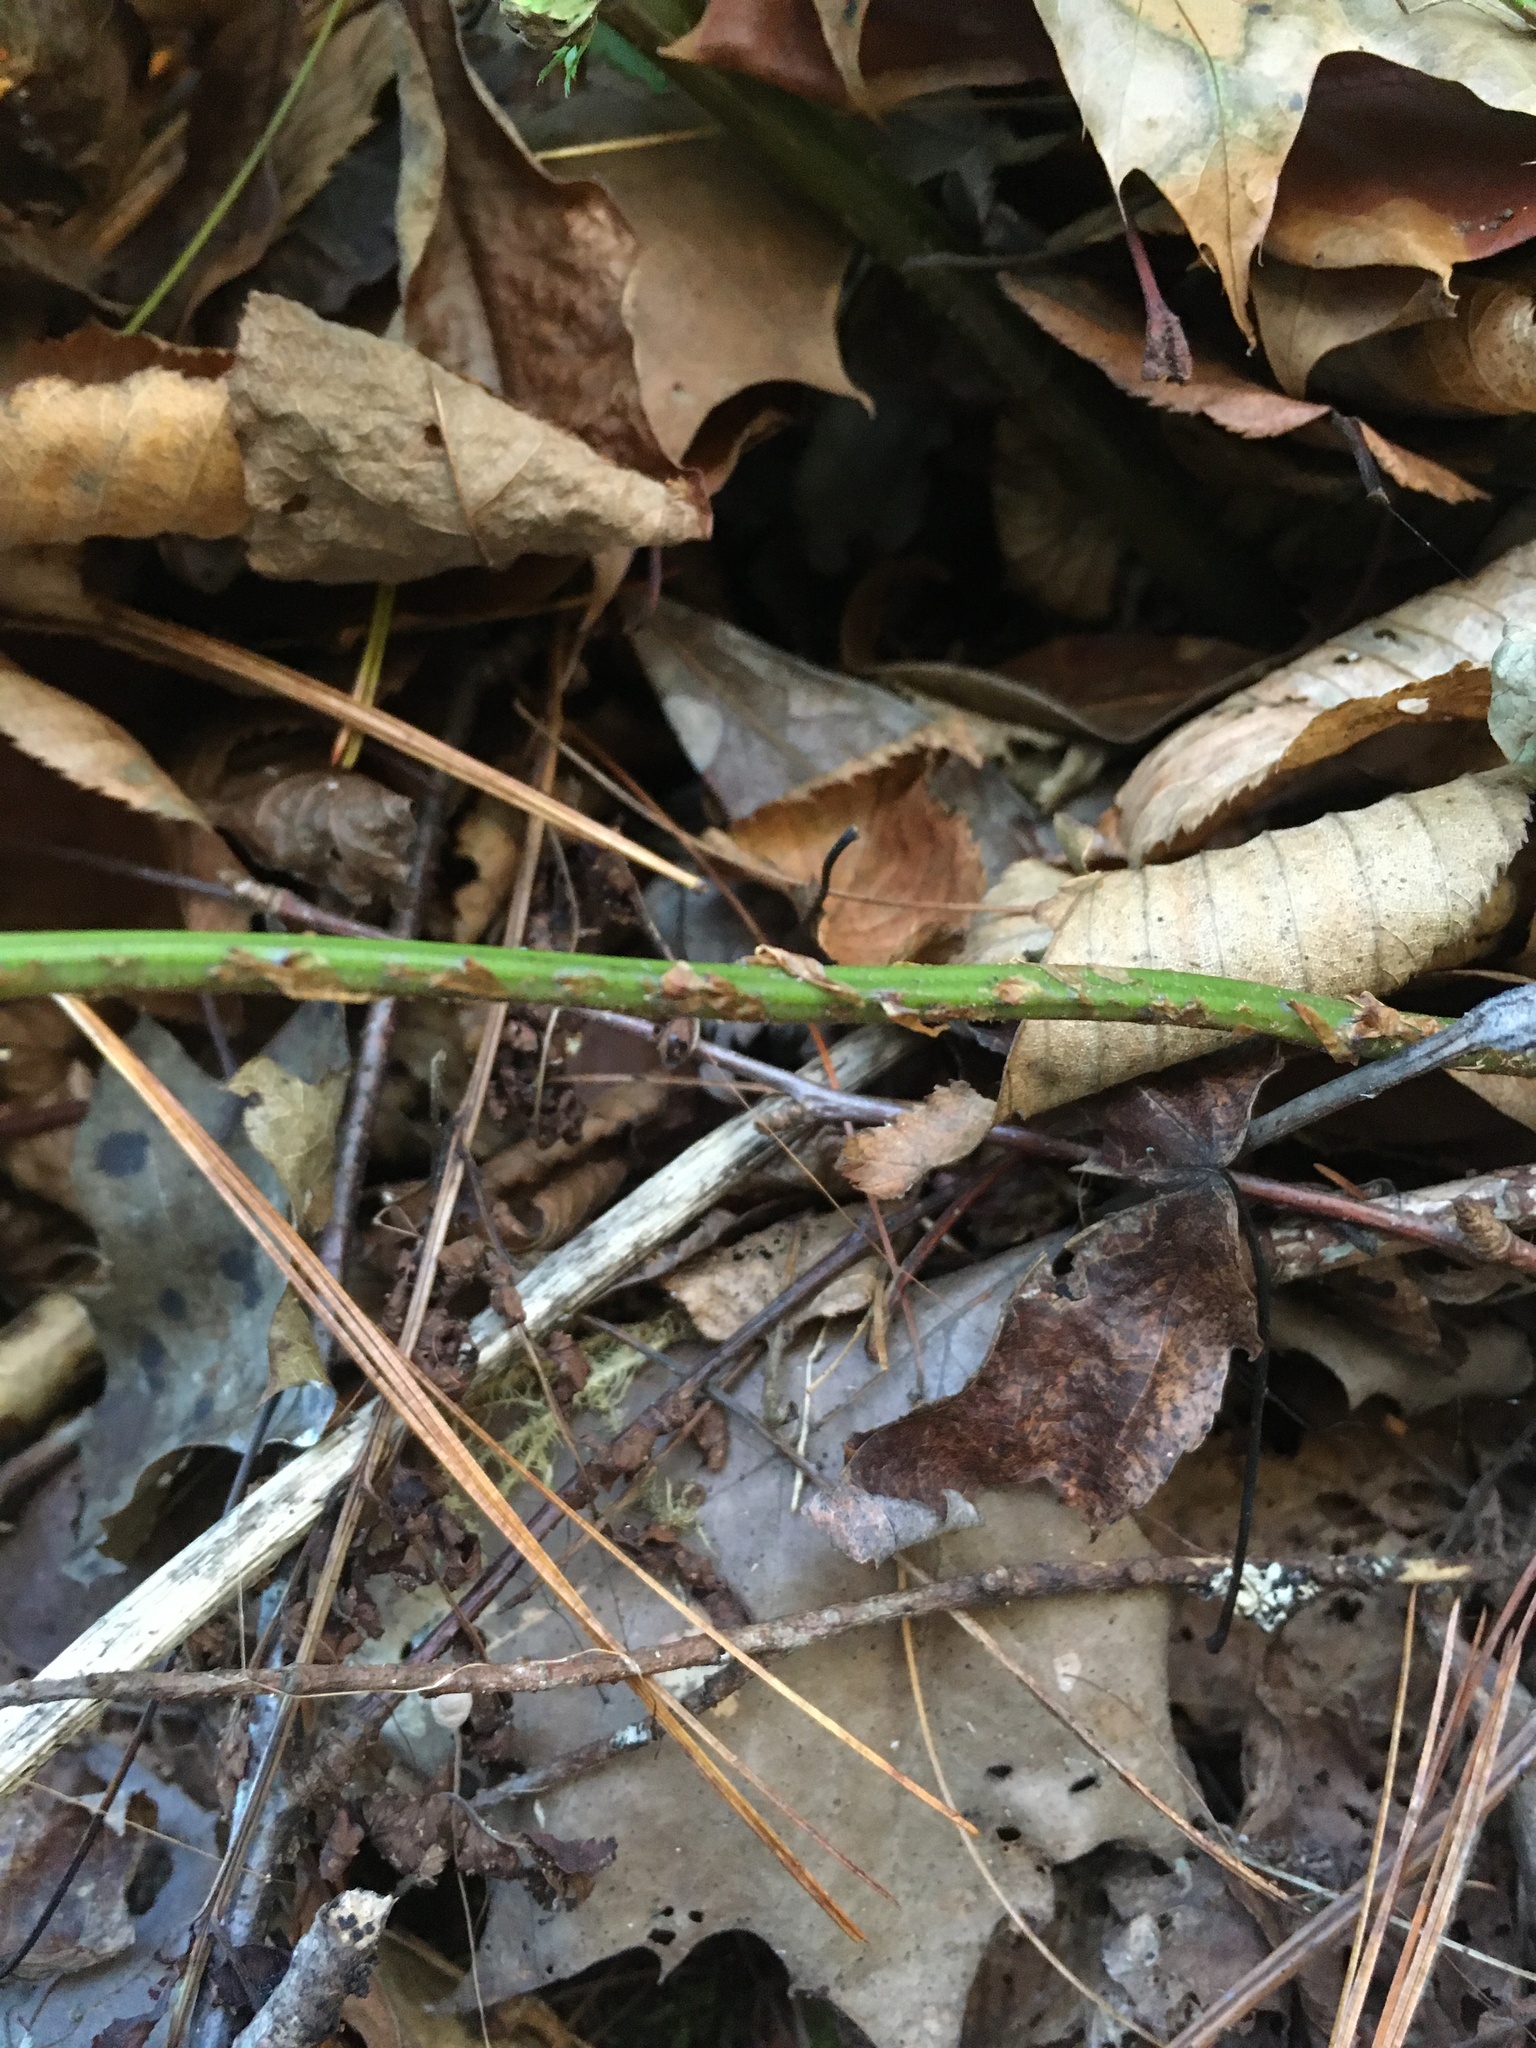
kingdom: Plantae
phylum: Tracheophyta
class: Polypodiopsida
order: Polypodiales
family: Dryopteridaceae
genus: Dryopteris
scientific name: Dryopteris intermedia
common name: Evergreen wood fern
